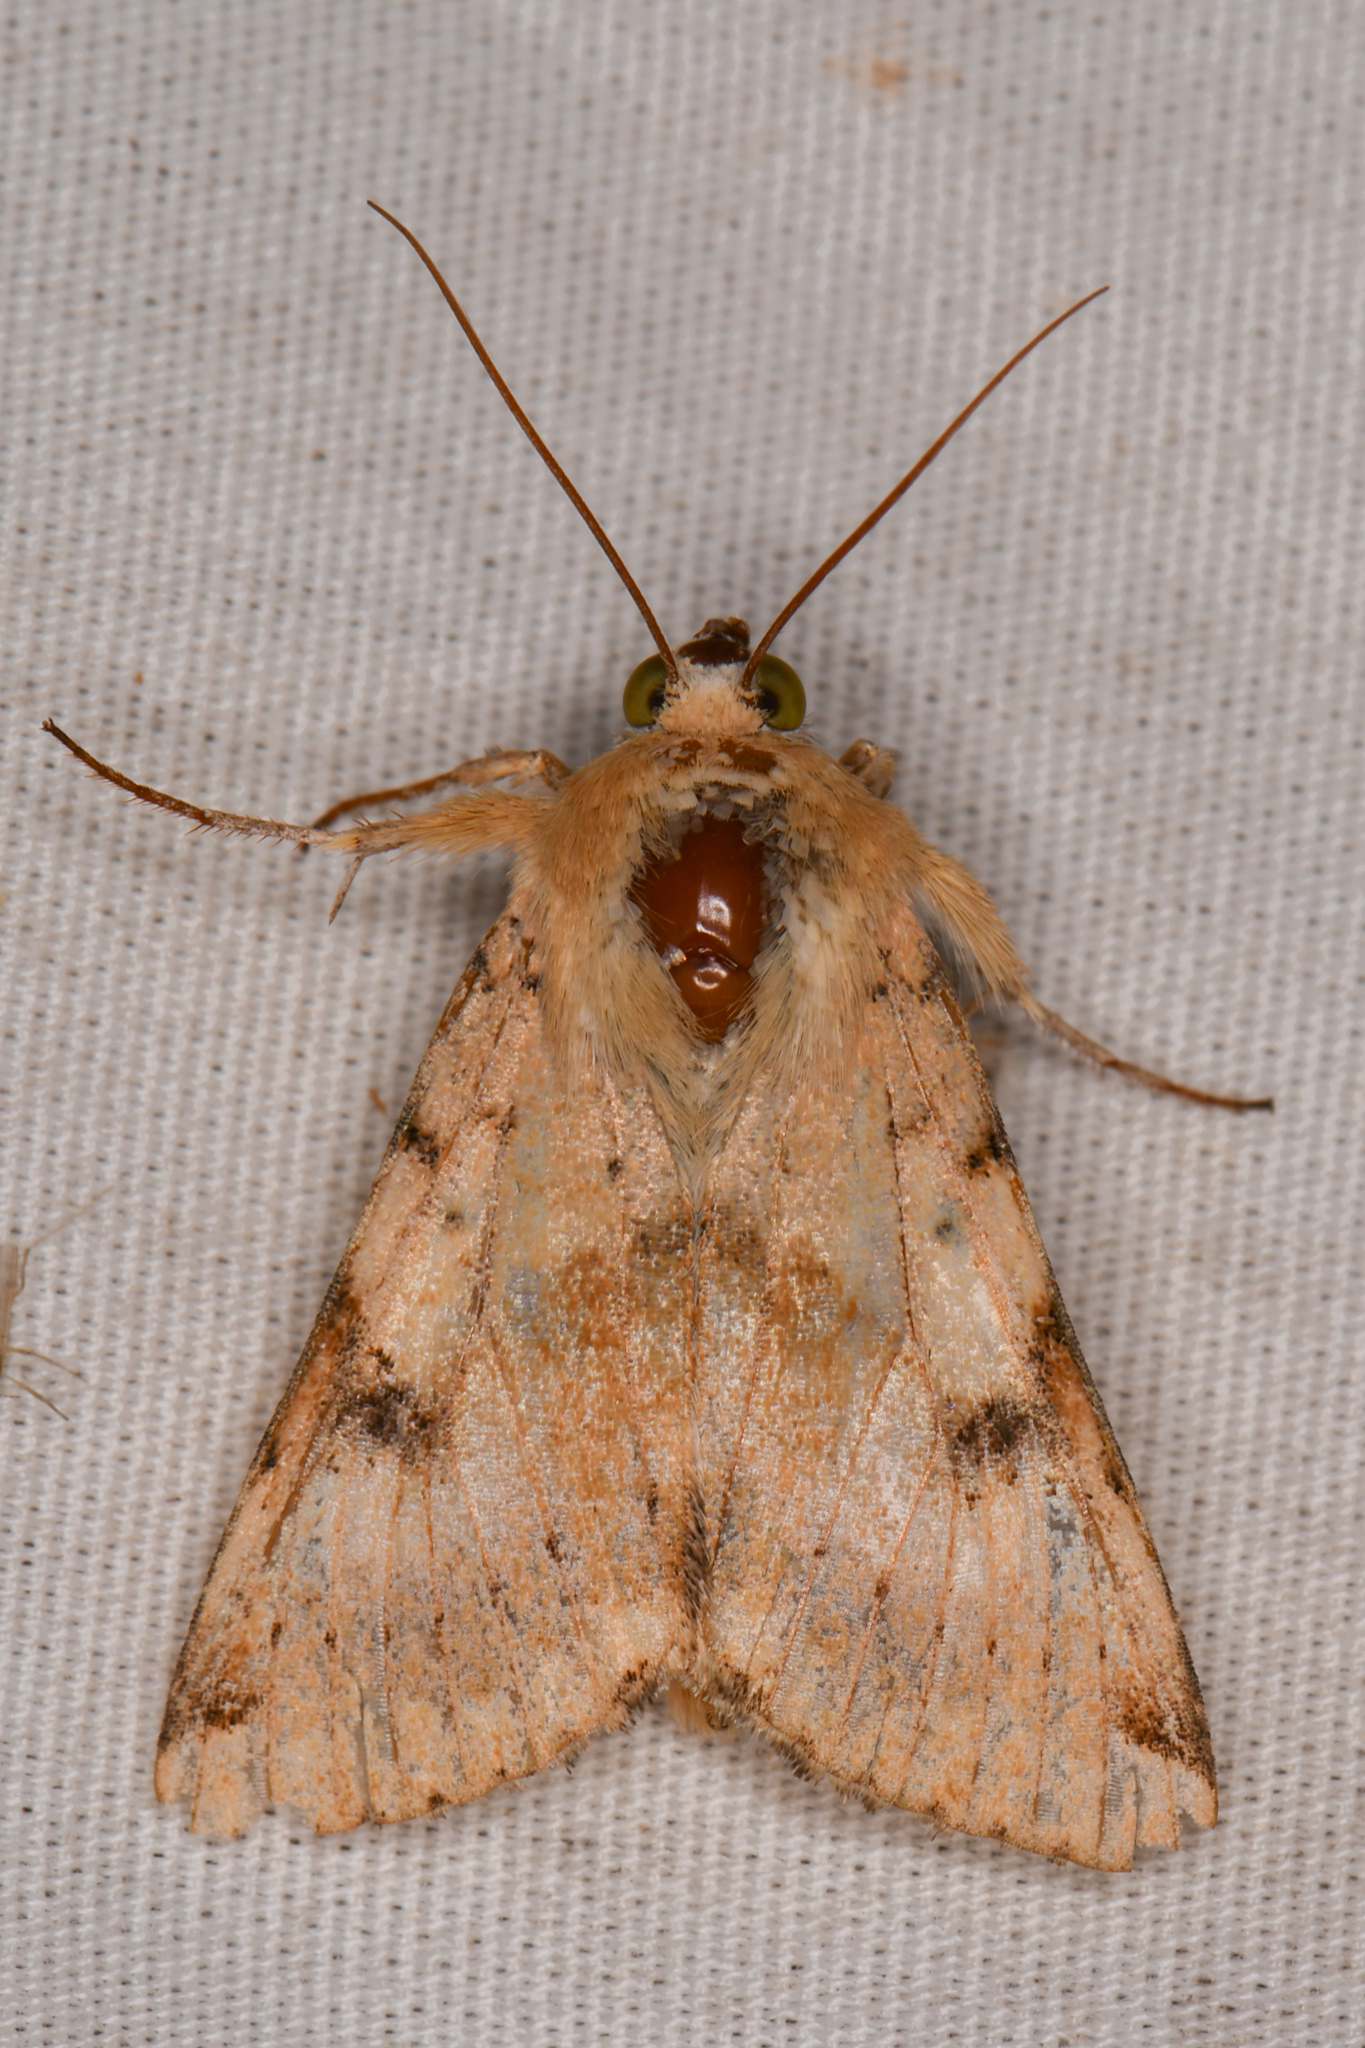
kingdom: Animalia
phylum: Arthropoda
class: Insecta
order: Lepidoptera
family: Noctuidae
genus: Heliothis
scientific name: Heliothis phloxiphaga
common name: Darker spotted straw moth
